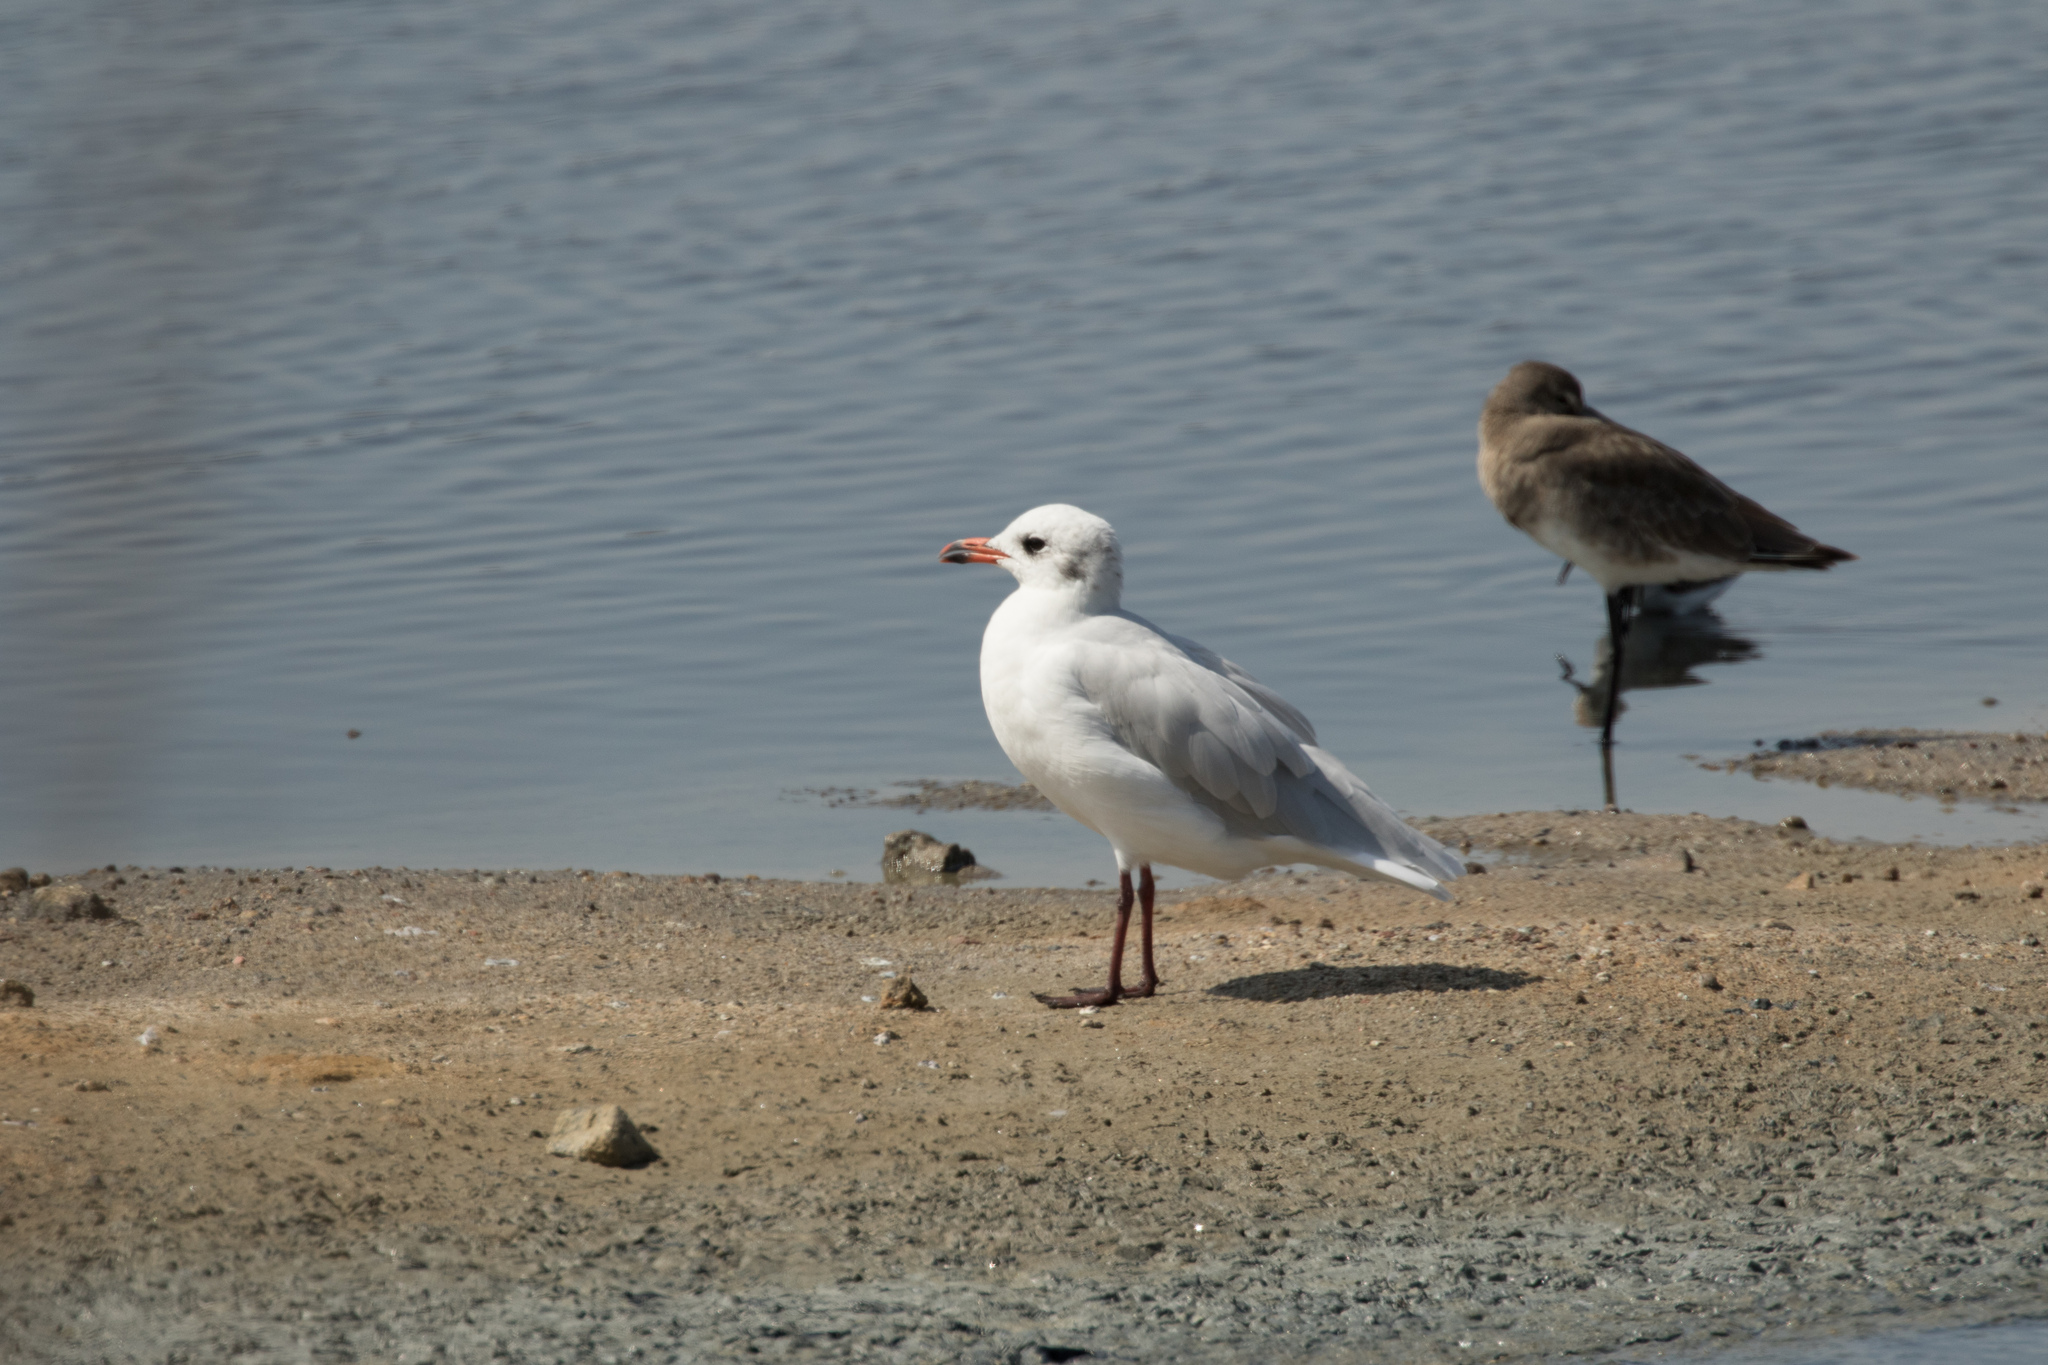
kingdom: Animalia
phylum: Chordata
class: Aves
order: Charadriiformes
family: Laridae
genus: Ichthyaetus
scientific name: Ichthyaetus melanocephalus
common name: Mediterranean gull
